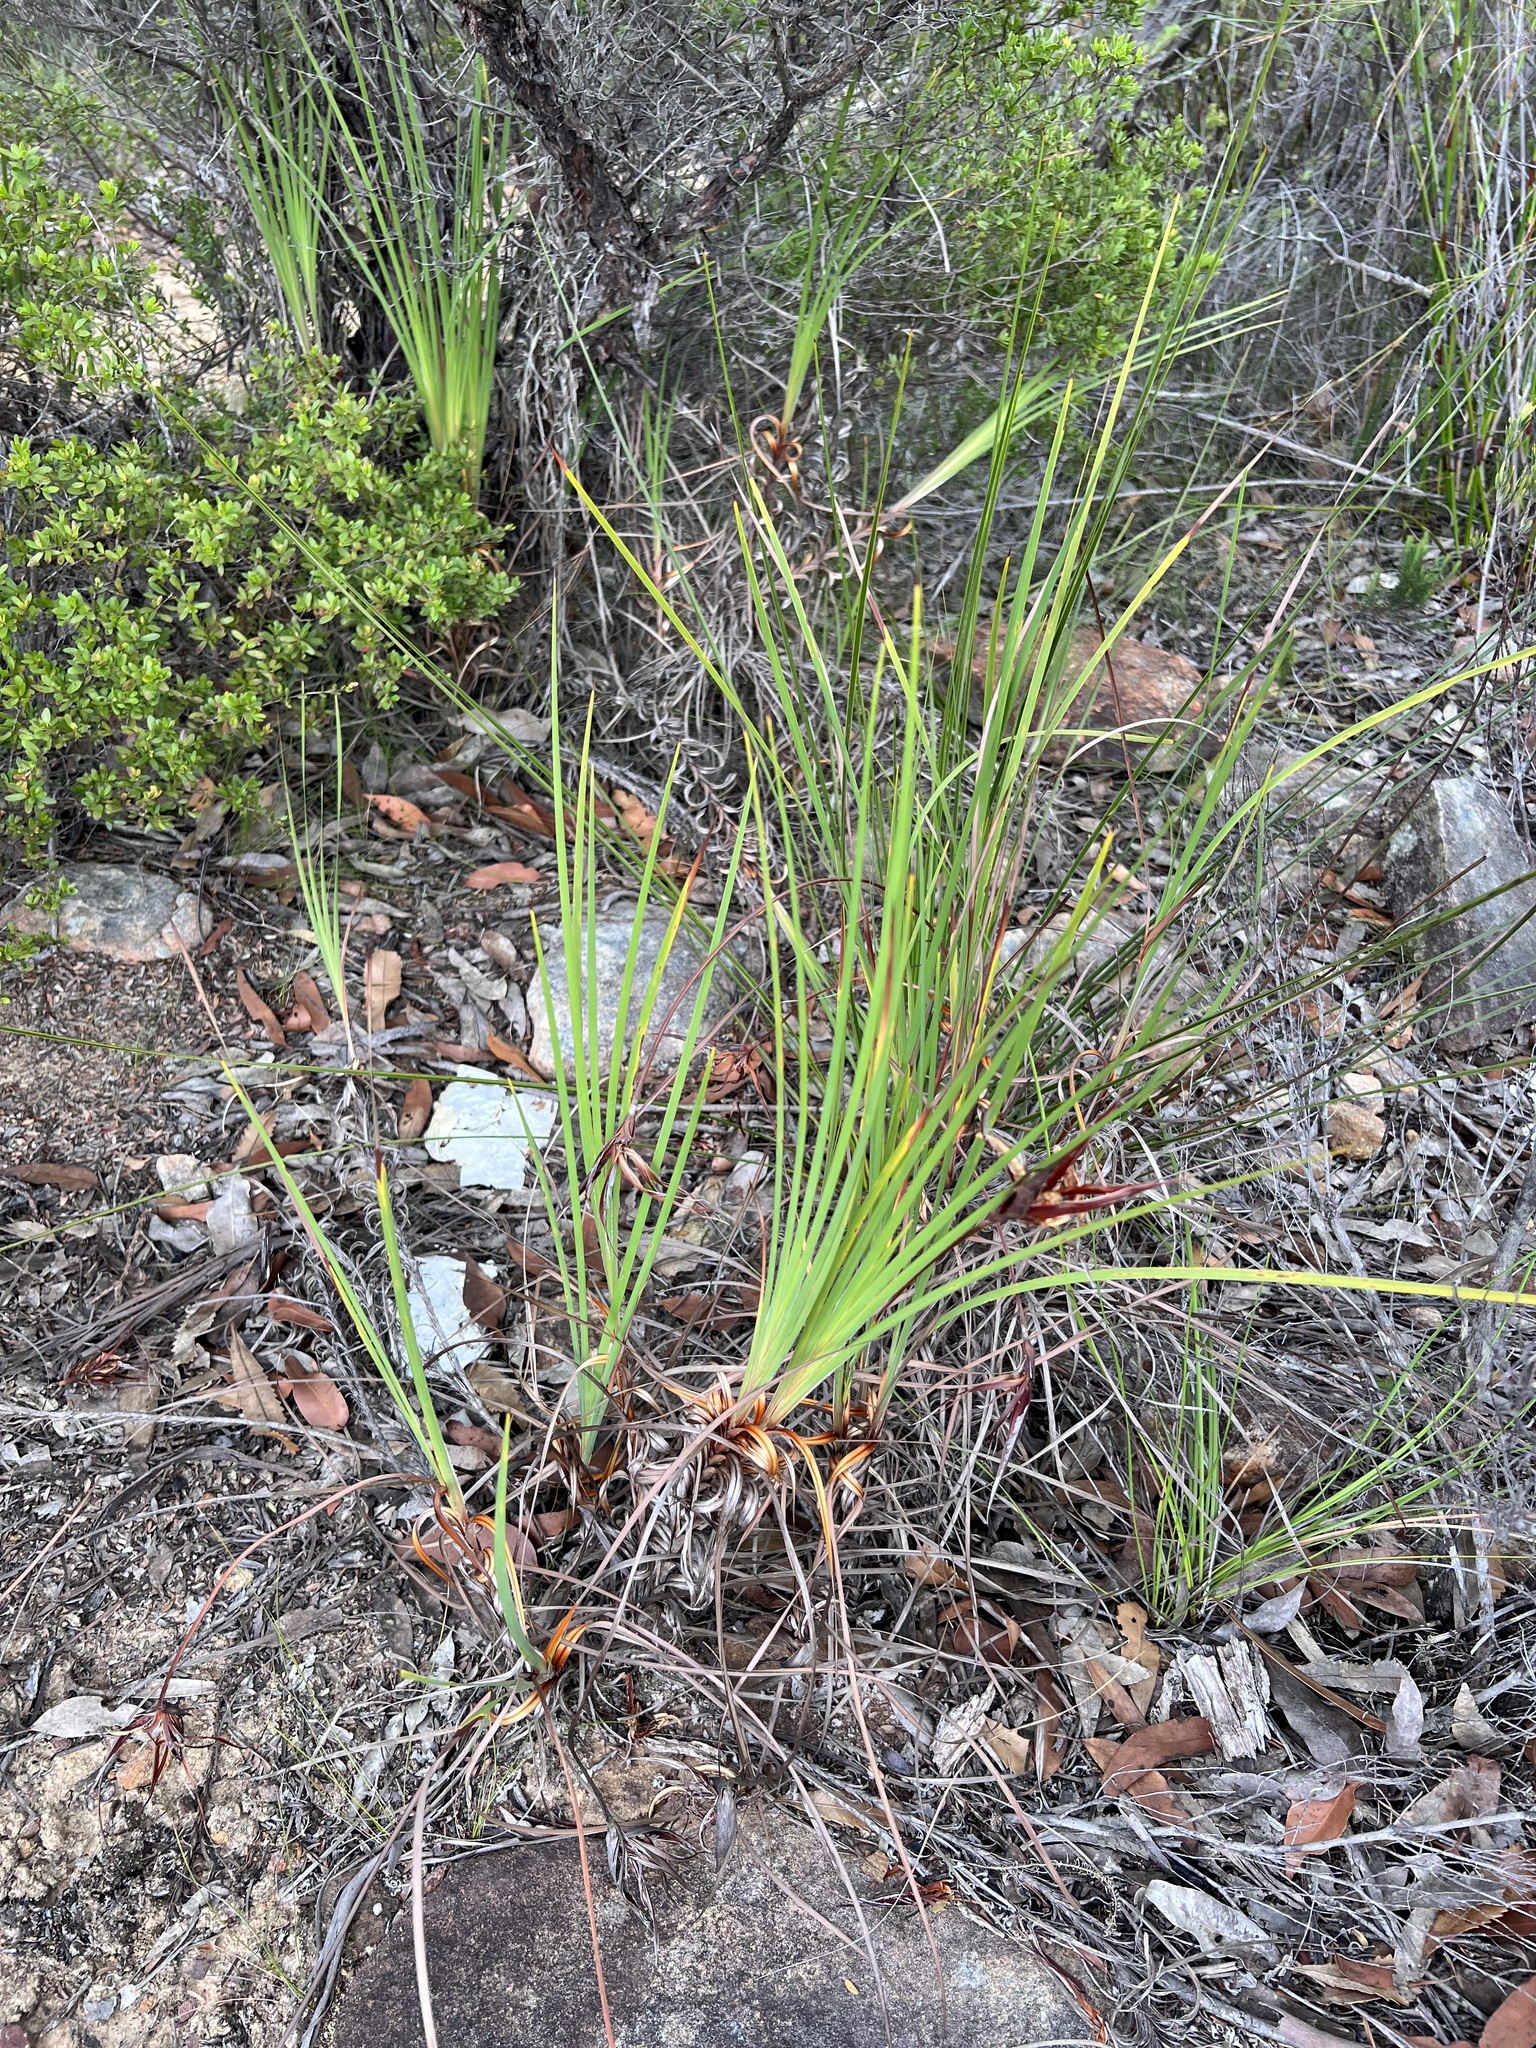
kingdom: Plantae
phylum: Tracheophyta
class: Liliopsida
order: Asparagales
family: Iridaceae
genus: Patersonia
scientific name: Patersonia glabrata
